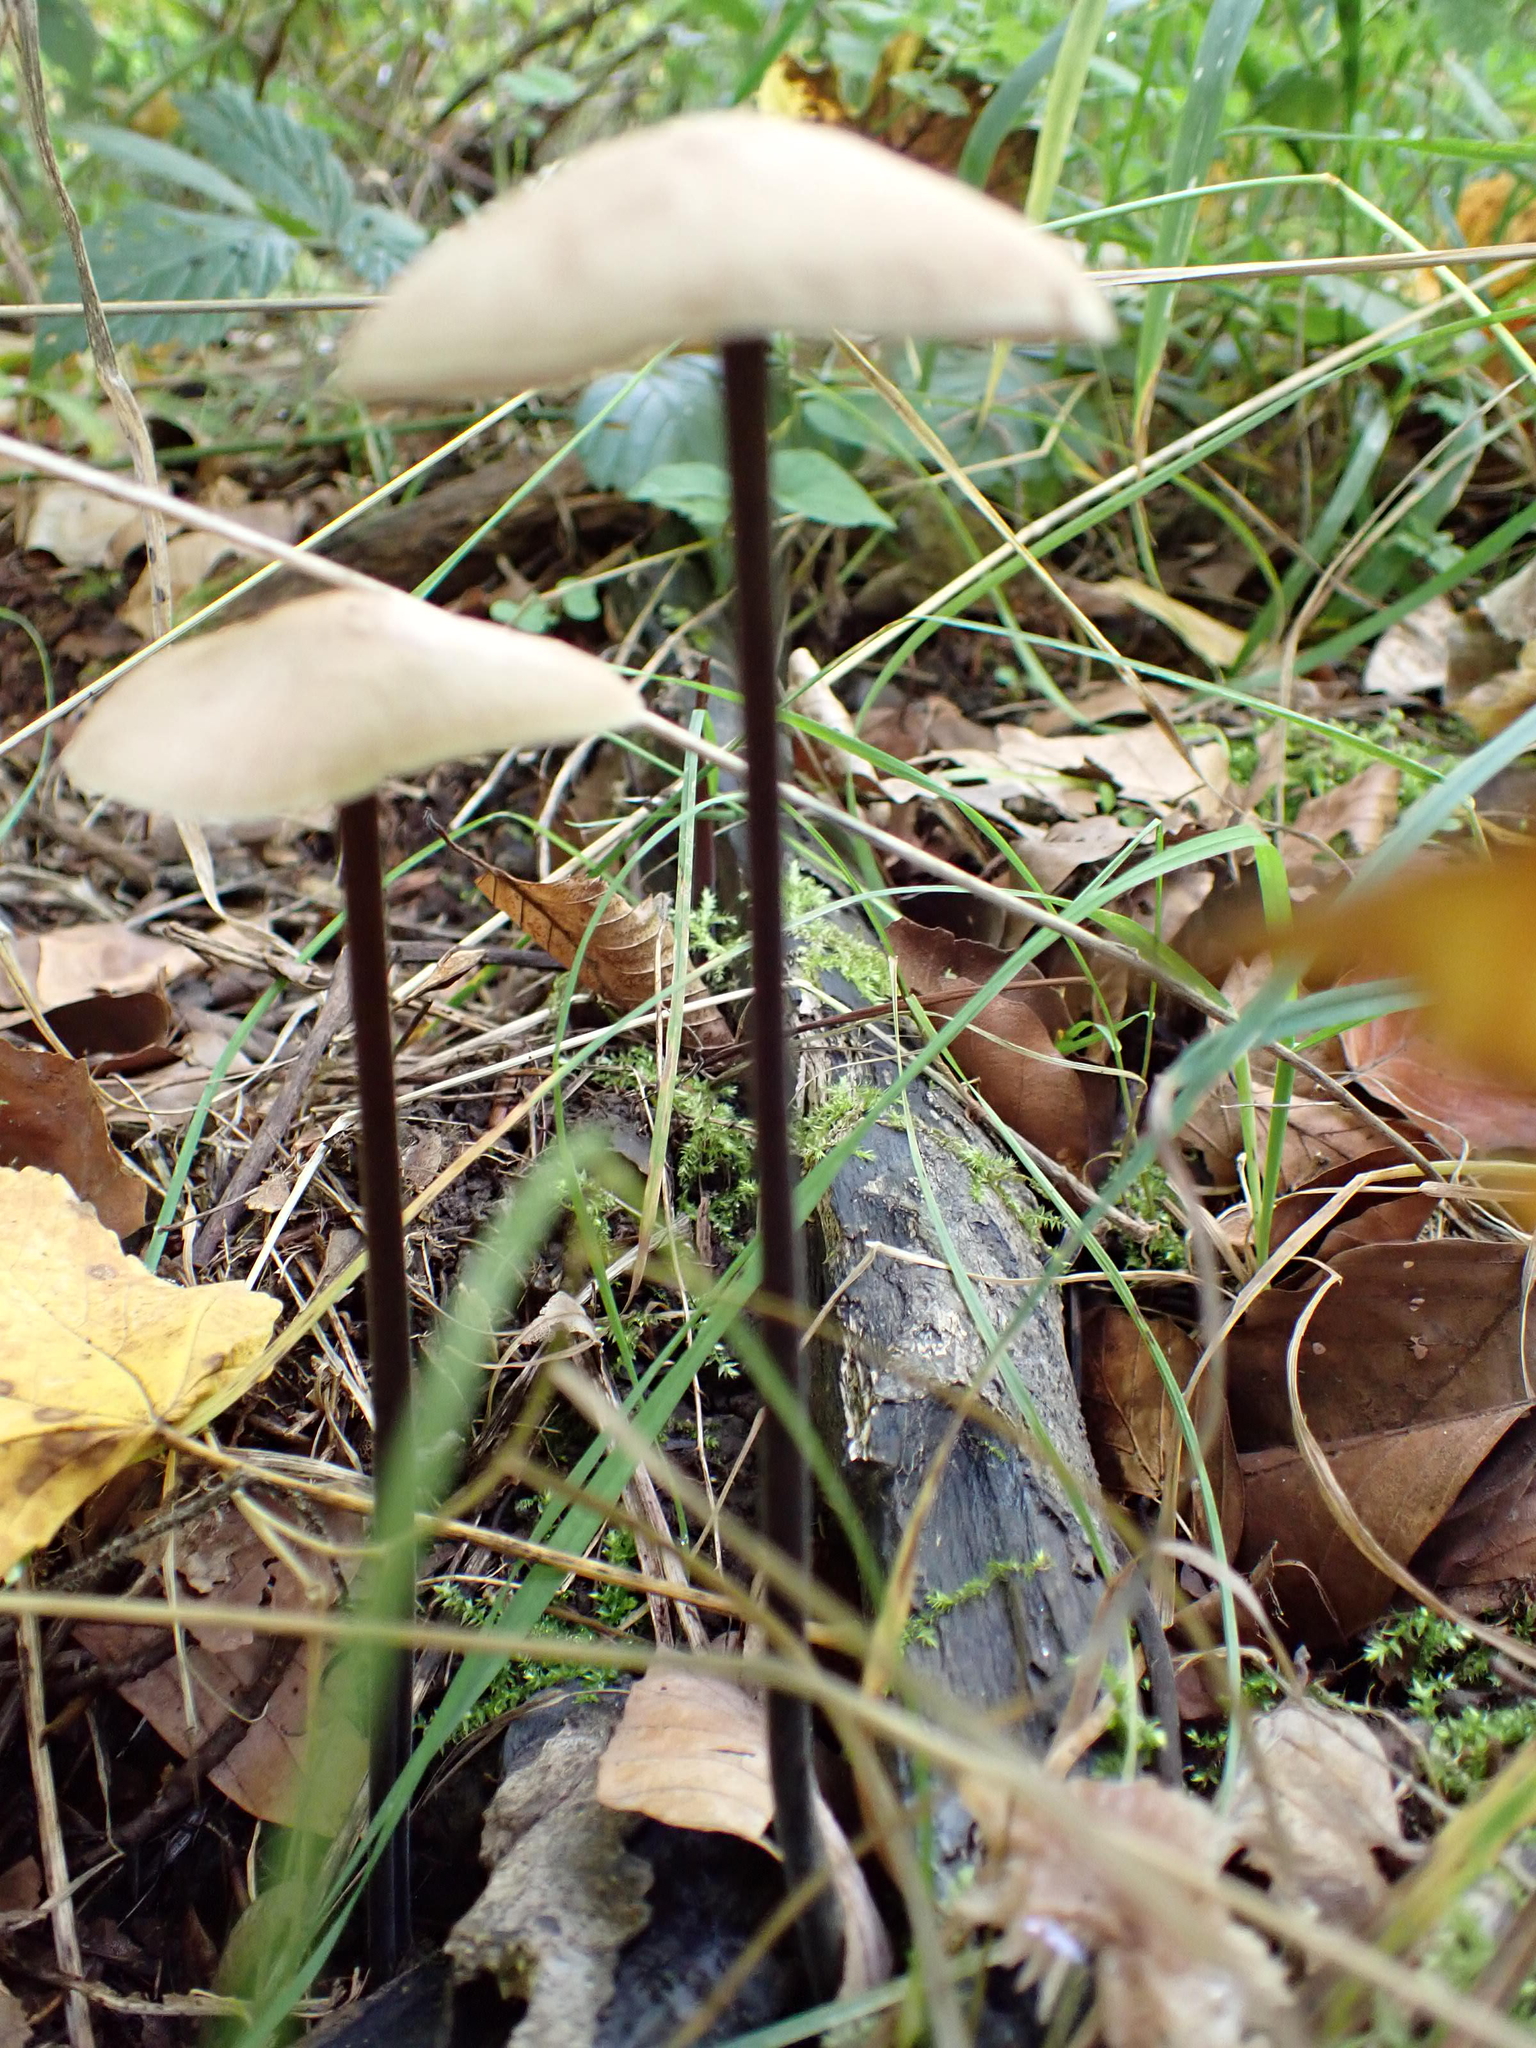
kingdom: Fungi
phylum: Basidiomycota
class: Agaricomycetes
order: Agaricales
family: Omphalotaceae
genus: Mycetinis
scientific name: Mycetinis alliaceus
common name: Garlic parachute
